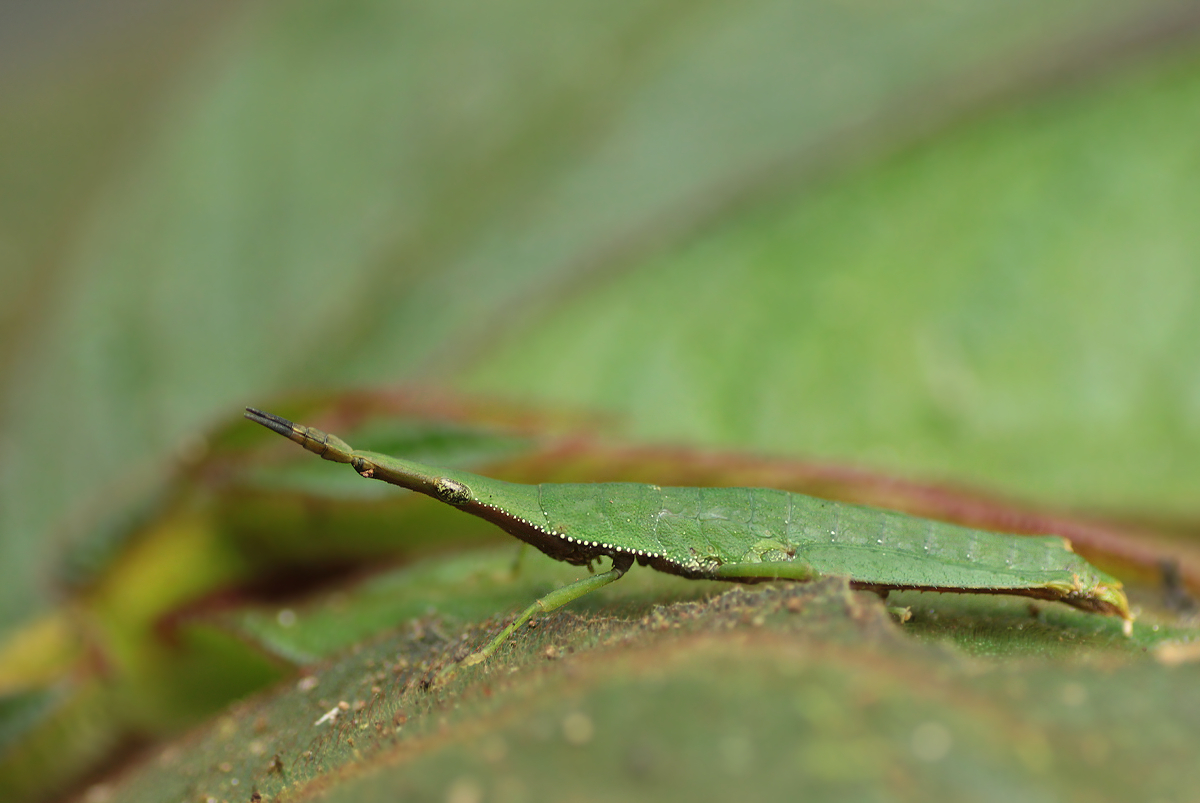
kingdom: Animalia
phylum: Arthropoda
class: Insecta
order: Orthoptera
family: Pyrgomorphidae
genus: Omura
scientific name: Omura congrua
